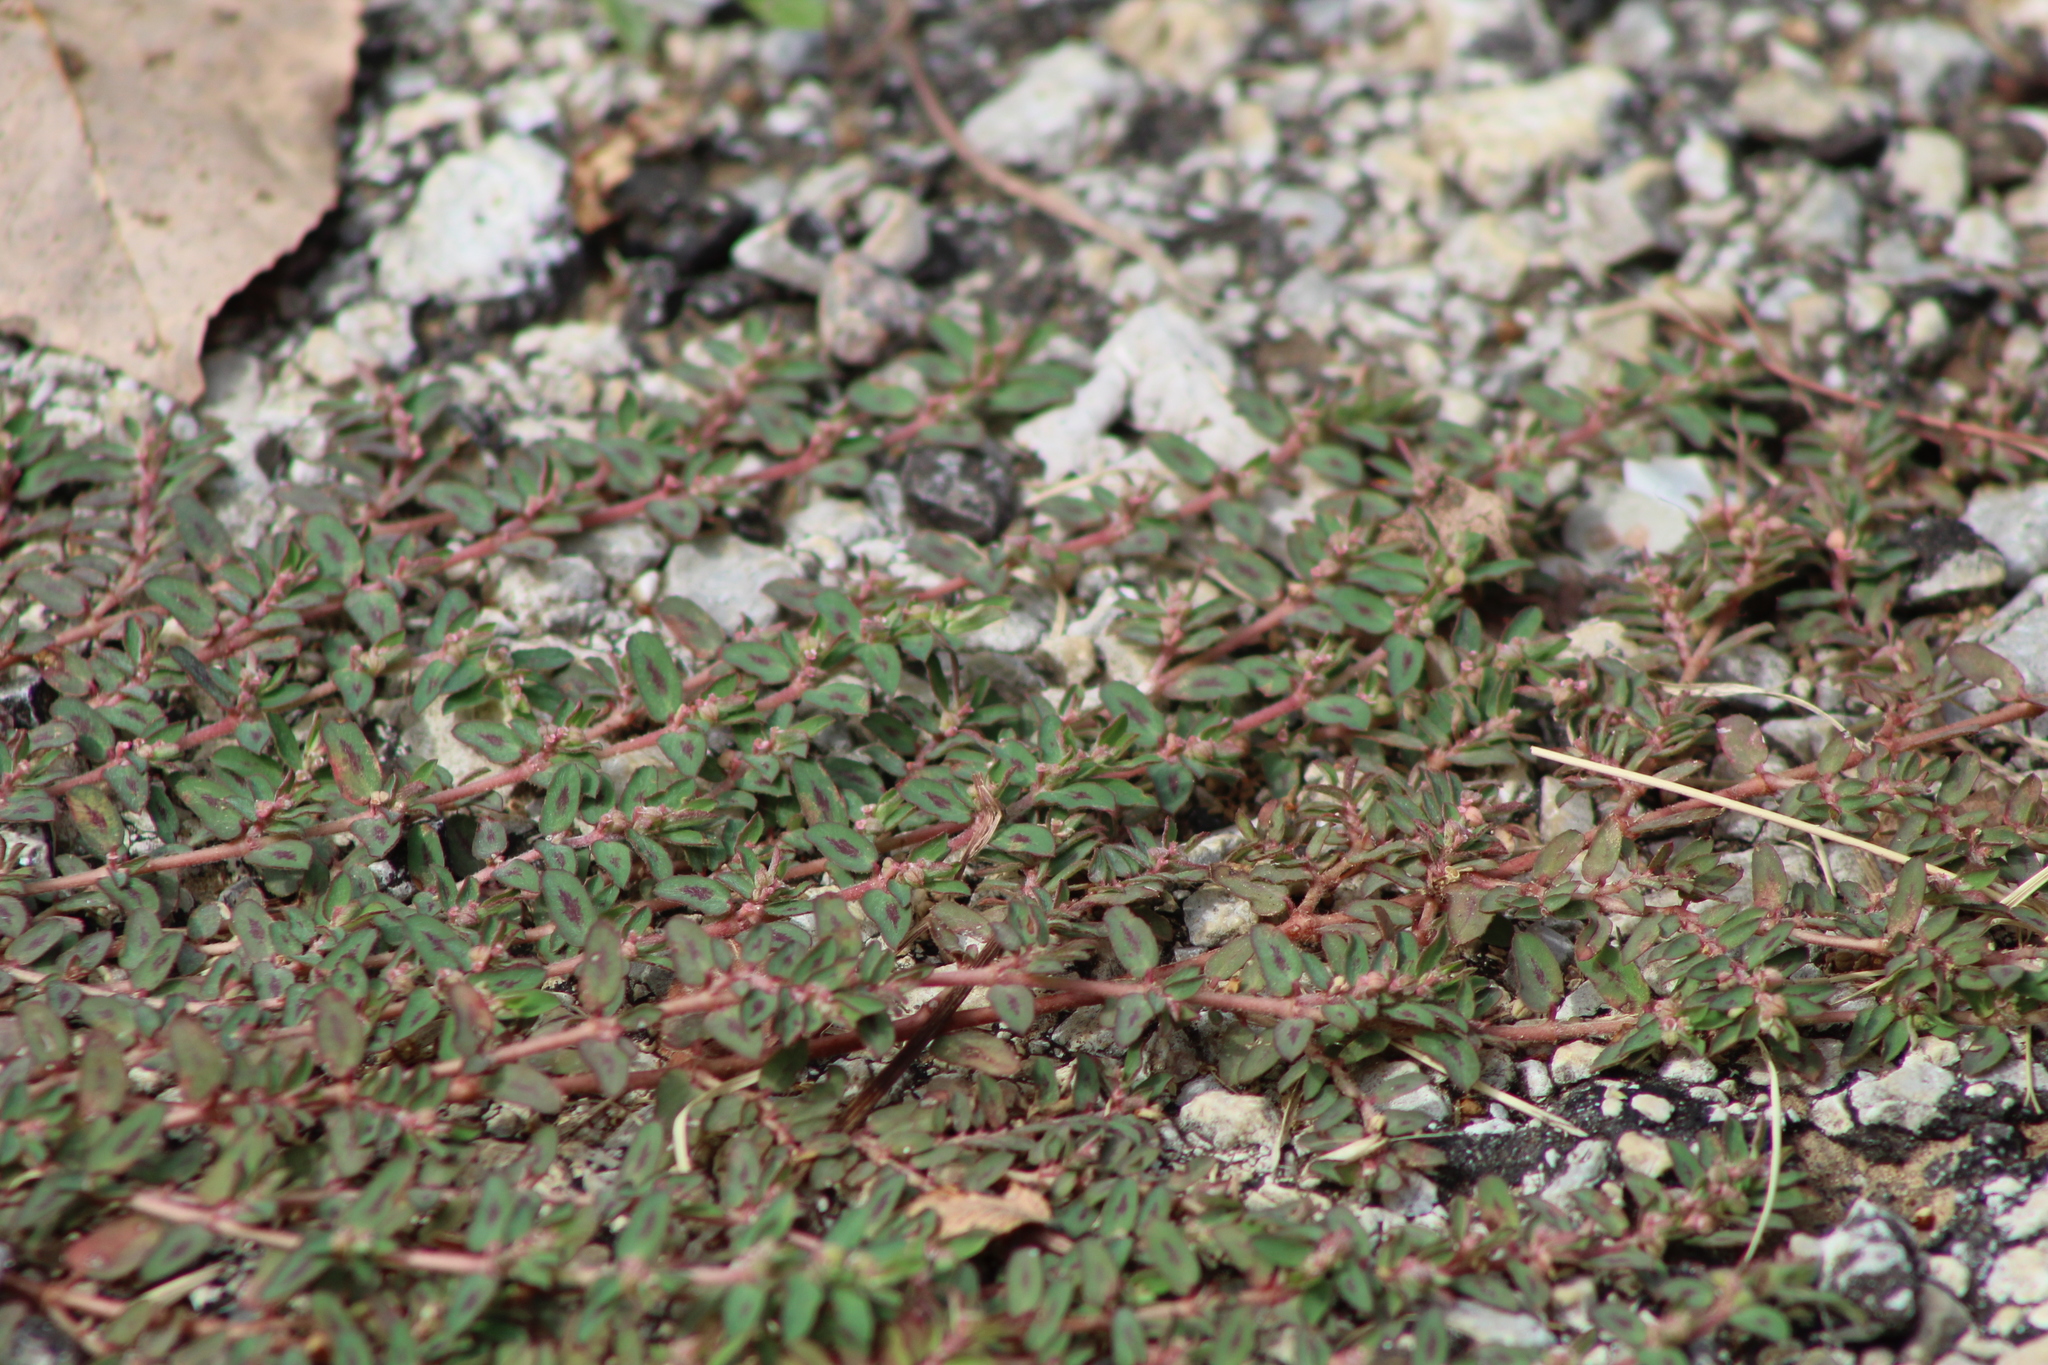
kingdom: Plantae
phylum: Tracheophyta
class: Magnoliopsida
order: Malpighiales
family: Euphorbiaceae
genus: Euphorbia
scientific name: Euphorbia maculata
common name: Spotted spurge
